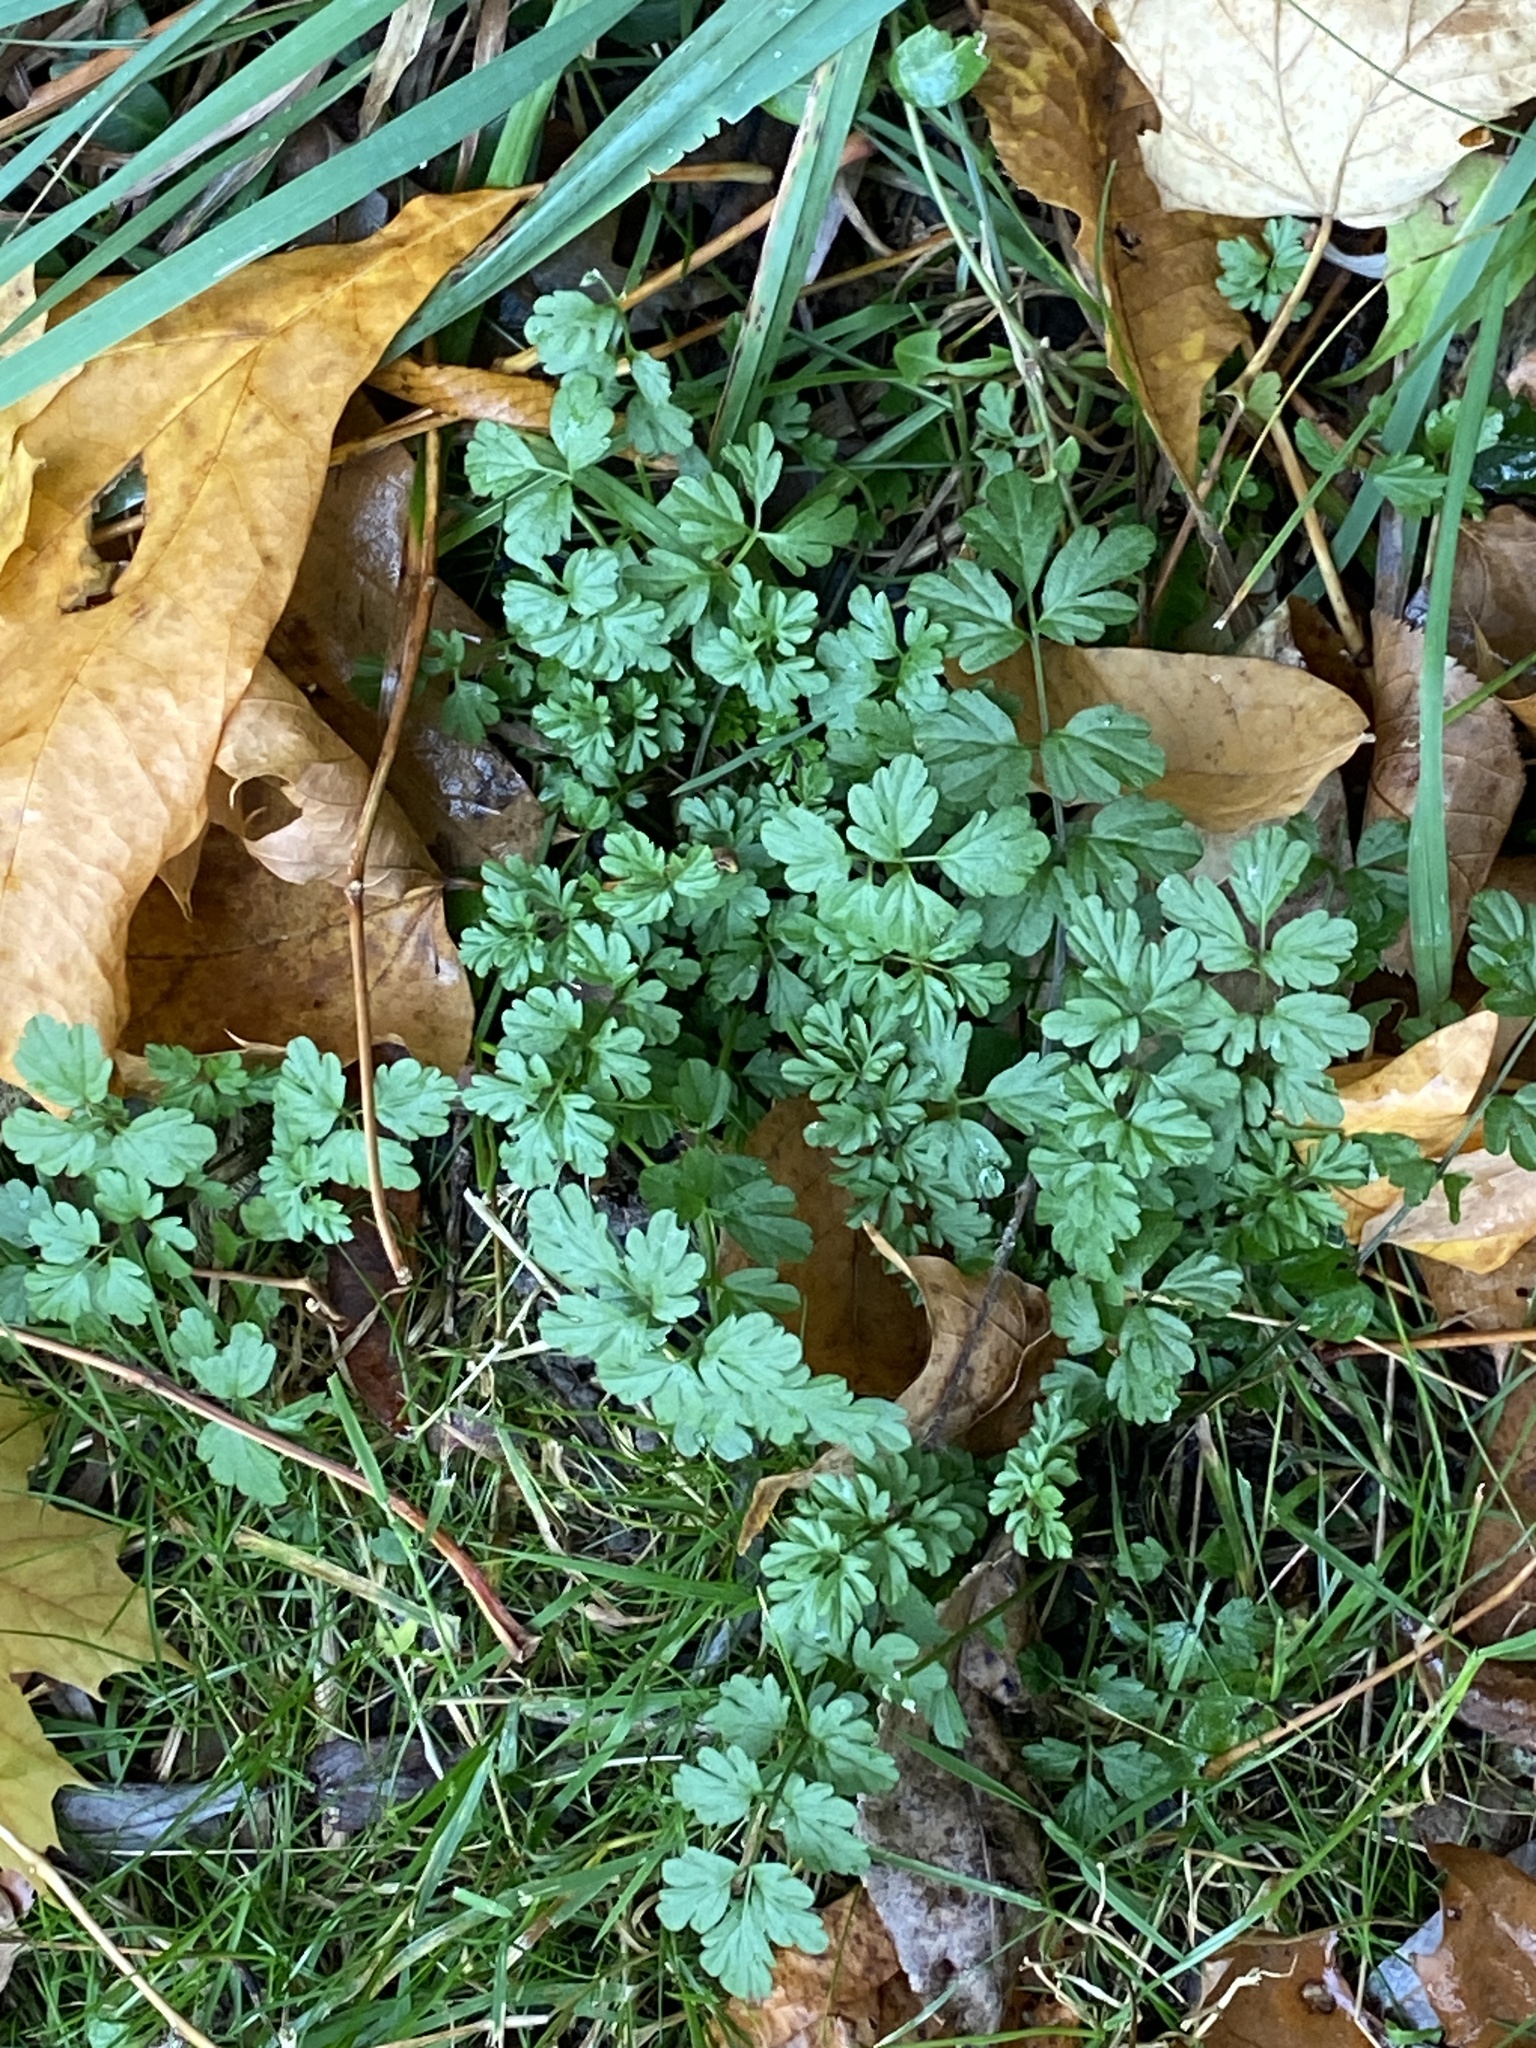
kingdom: Plantae
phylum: Tracheophyta
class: Magnoliopsida
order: Brassicales
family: Brassicaceae
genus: Cardamine
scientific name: Cardamine impatiens
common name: Narrow-leaved bitter-cress
